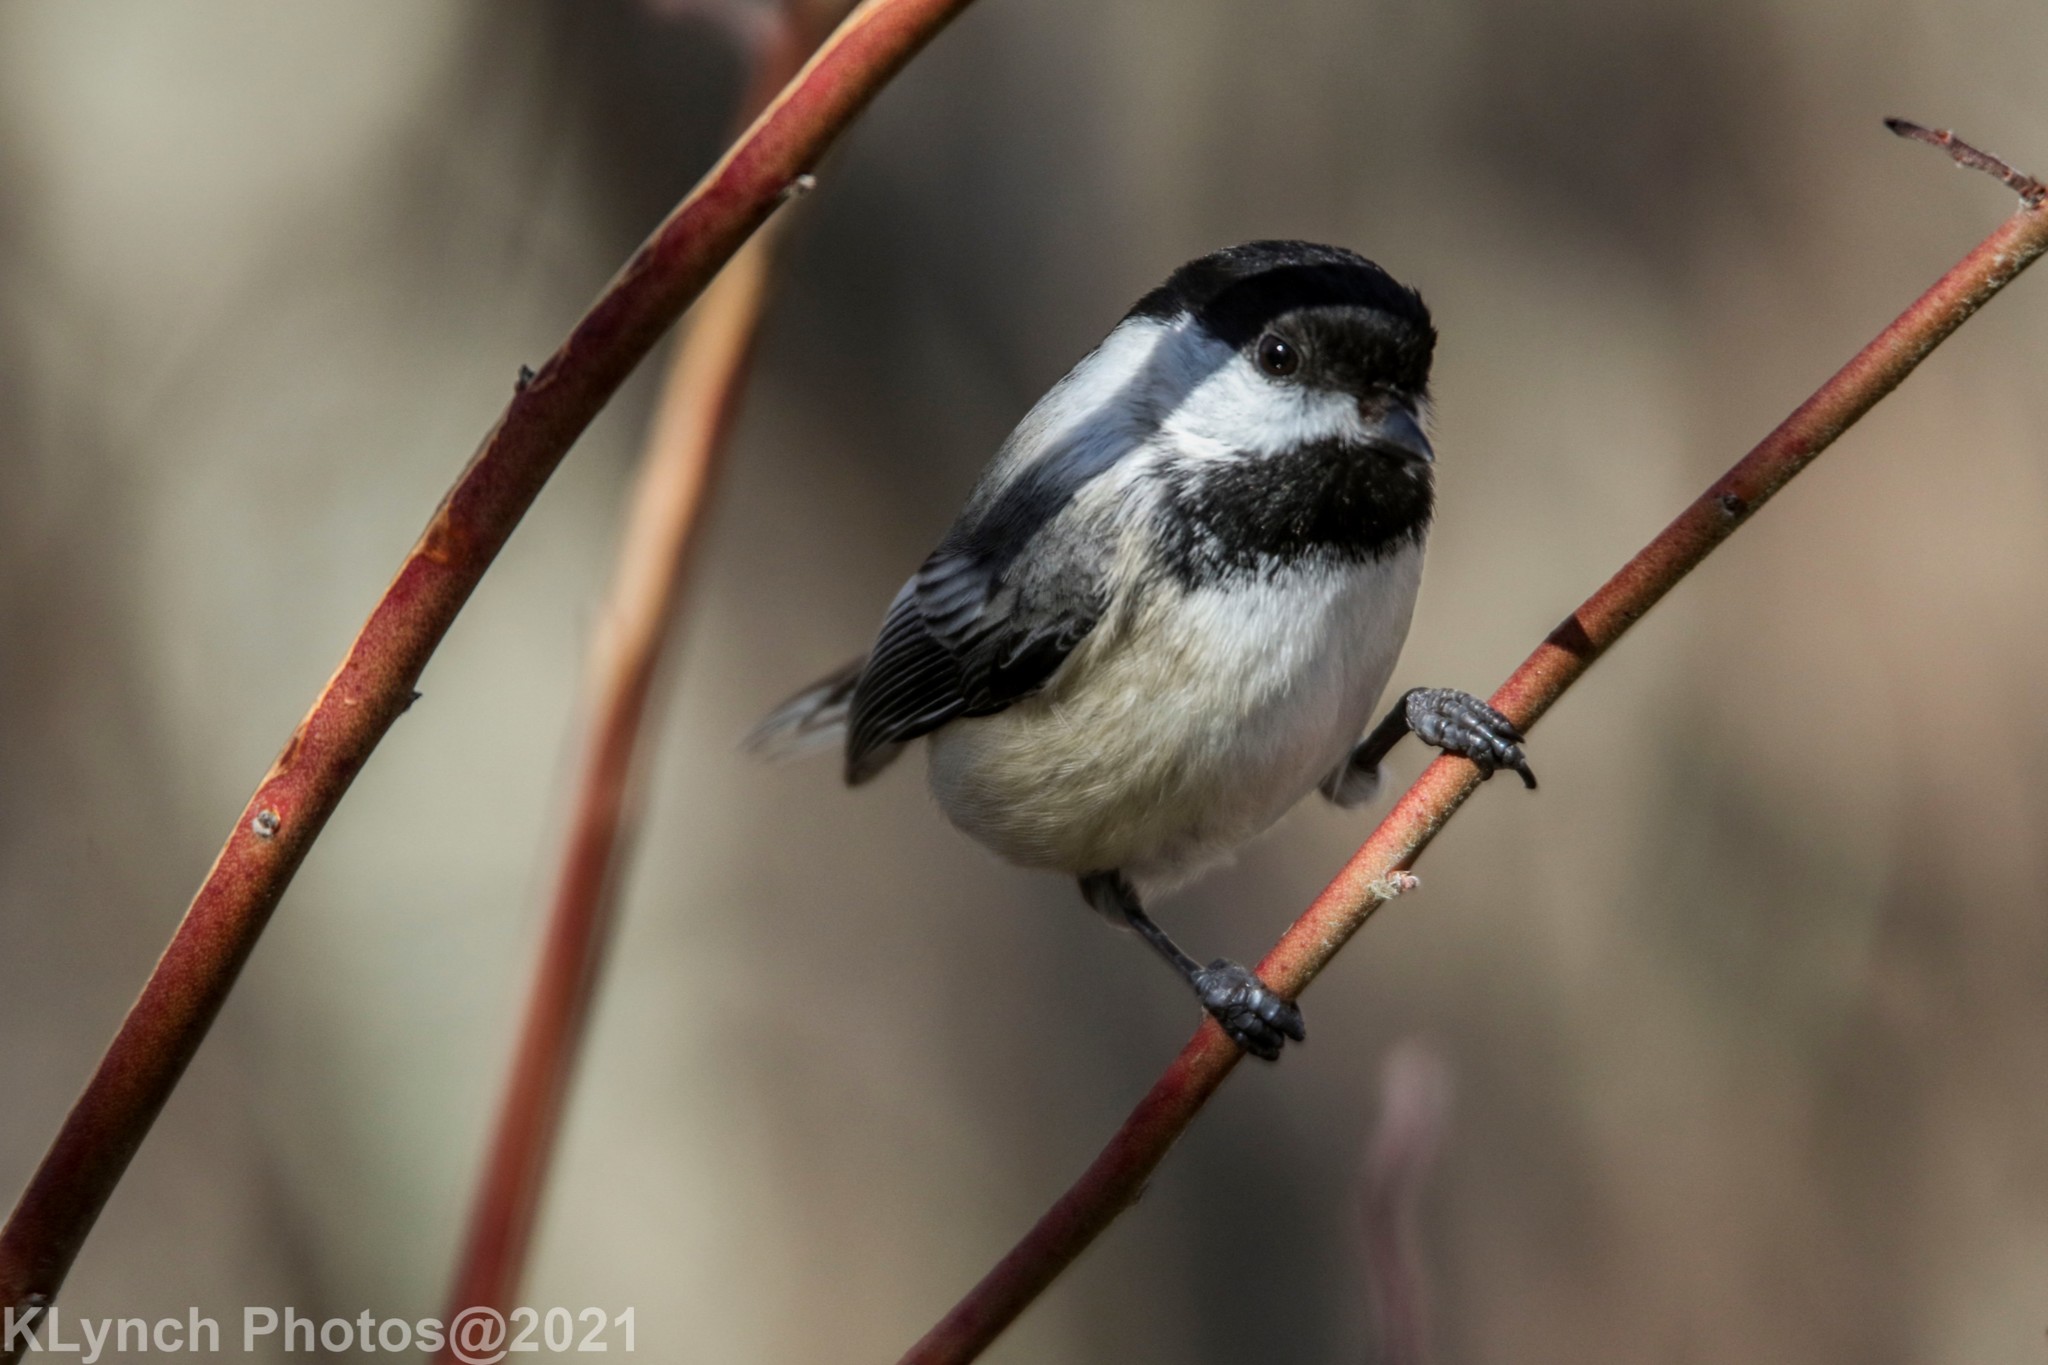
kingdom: Animalia
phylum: Chordata
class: Aves
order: Passeriformes
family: Paridae
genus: Poecile
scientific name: Poecile atricapillus
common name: Black-capped chickadee
